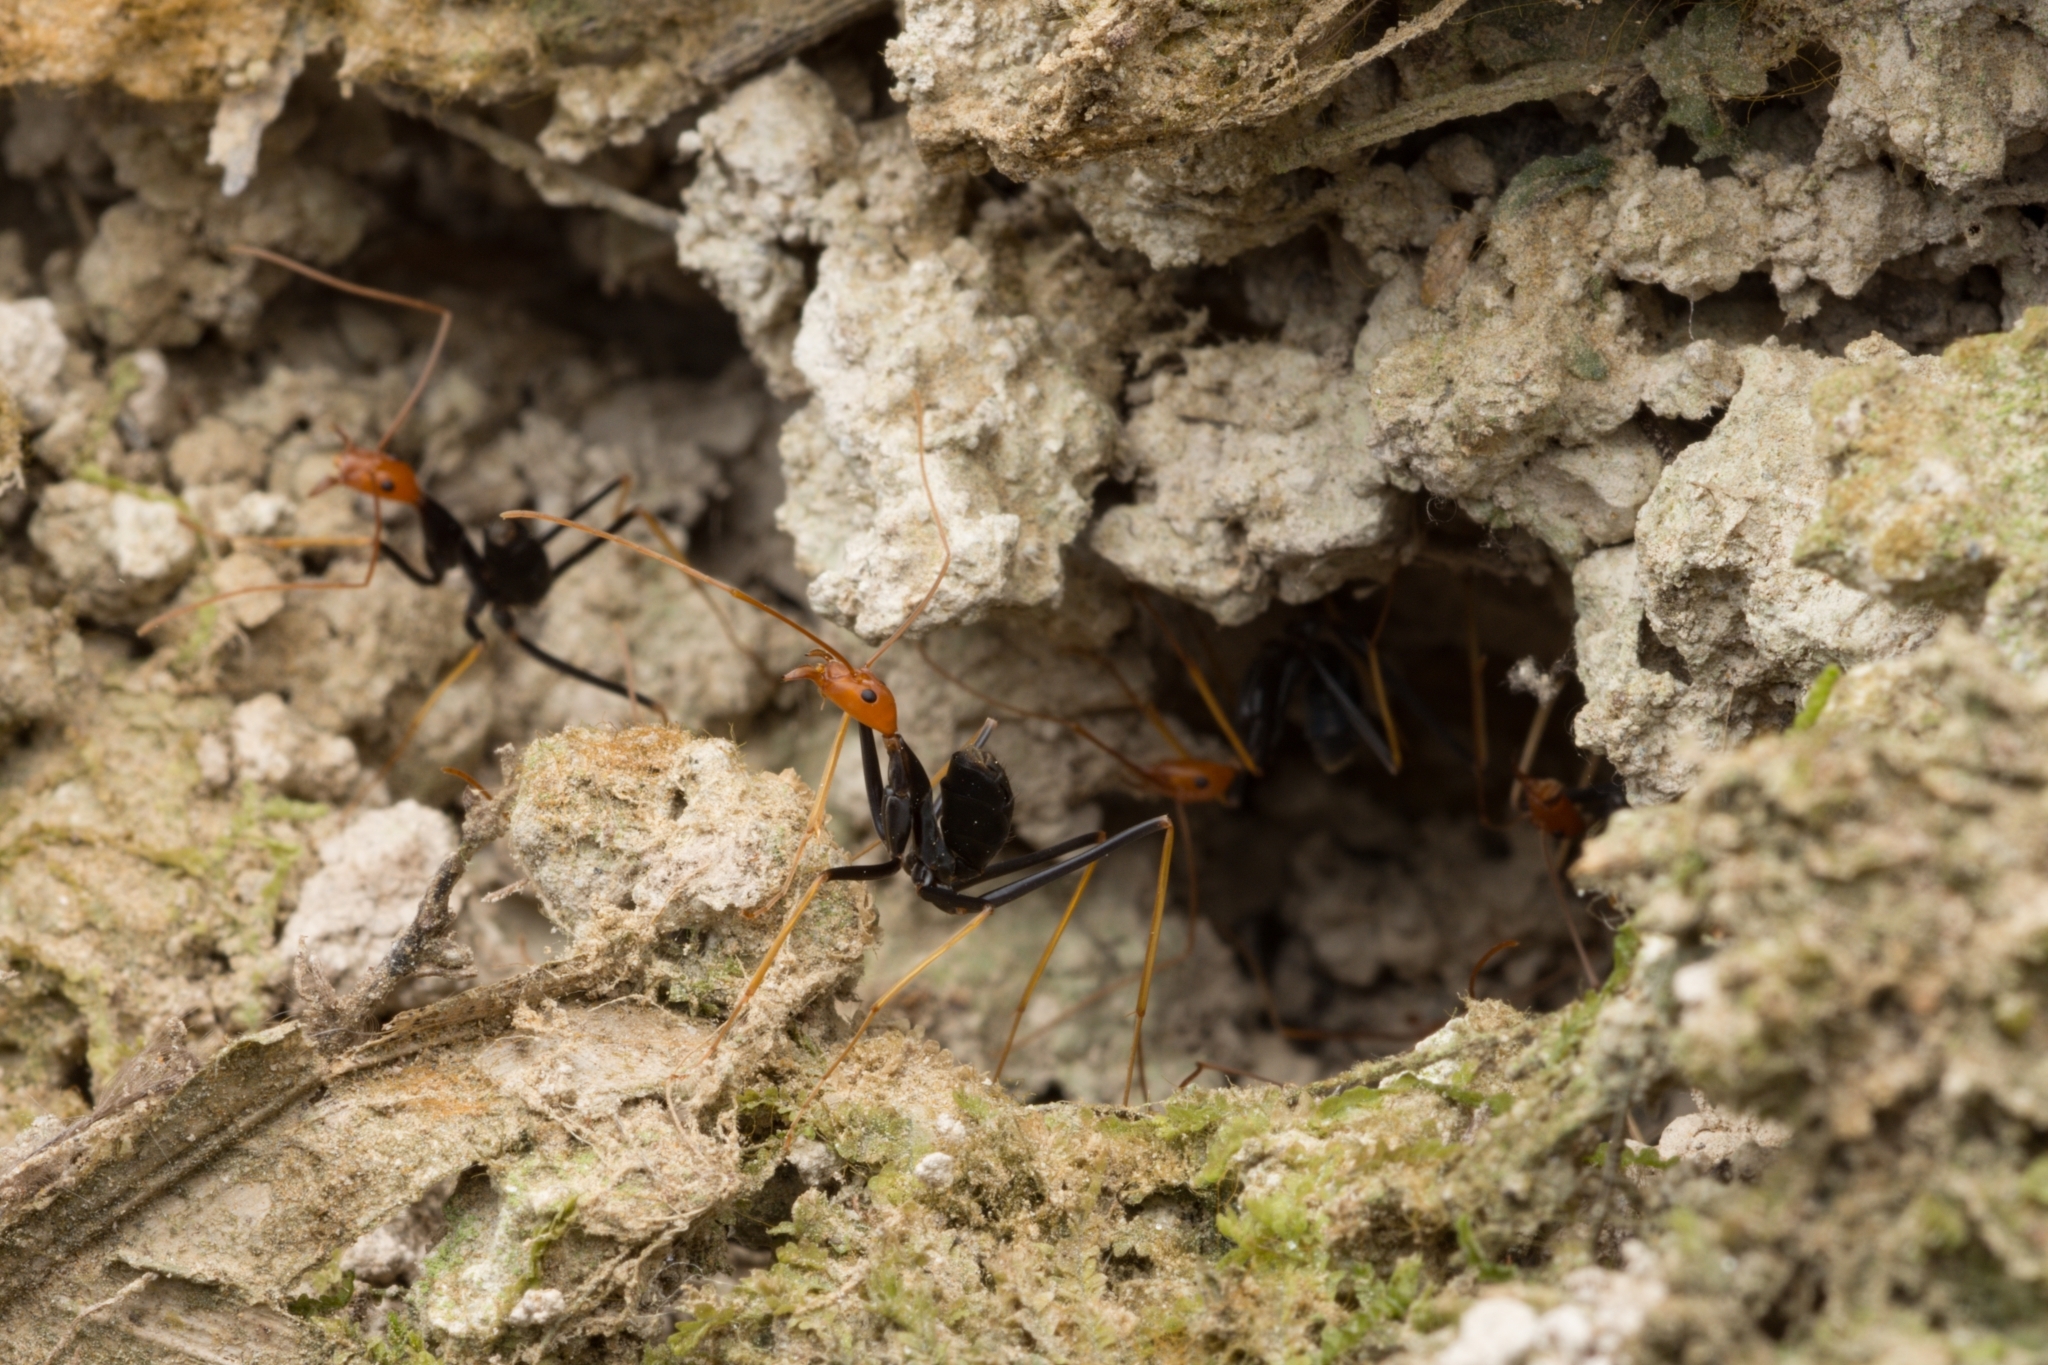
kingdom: Animalia
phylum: Arthropoda
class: Insecta
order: Hymenoptera
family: Formicidae
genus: Leptomyrmex
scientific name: Leptomyrmex ruficeps
